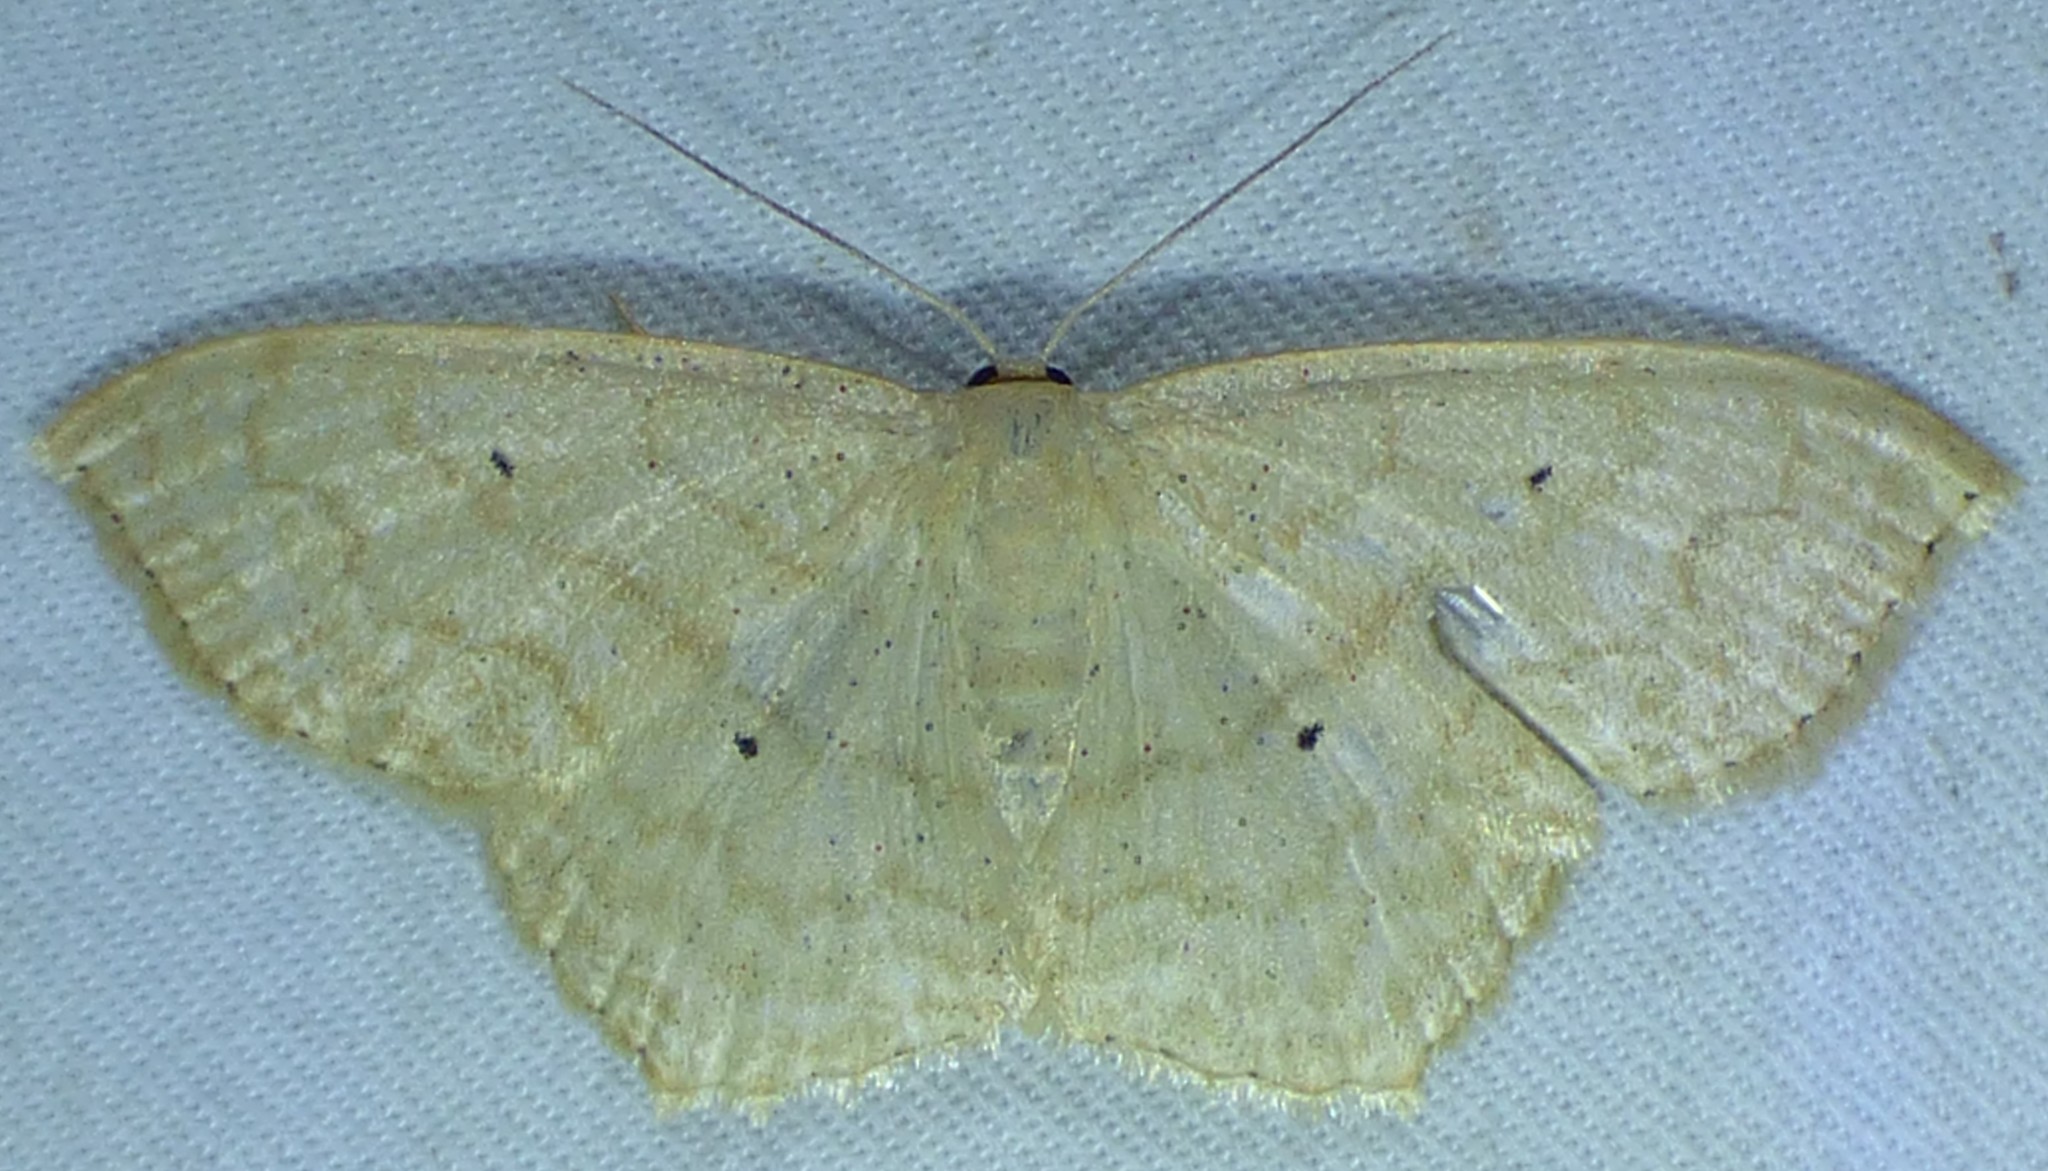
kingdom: Animalia
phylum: Arthropoda
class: Insecta
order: Lepidoptera
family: Geometridae
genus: Scopula
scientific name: Scopula limboundata
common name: Large lace border
